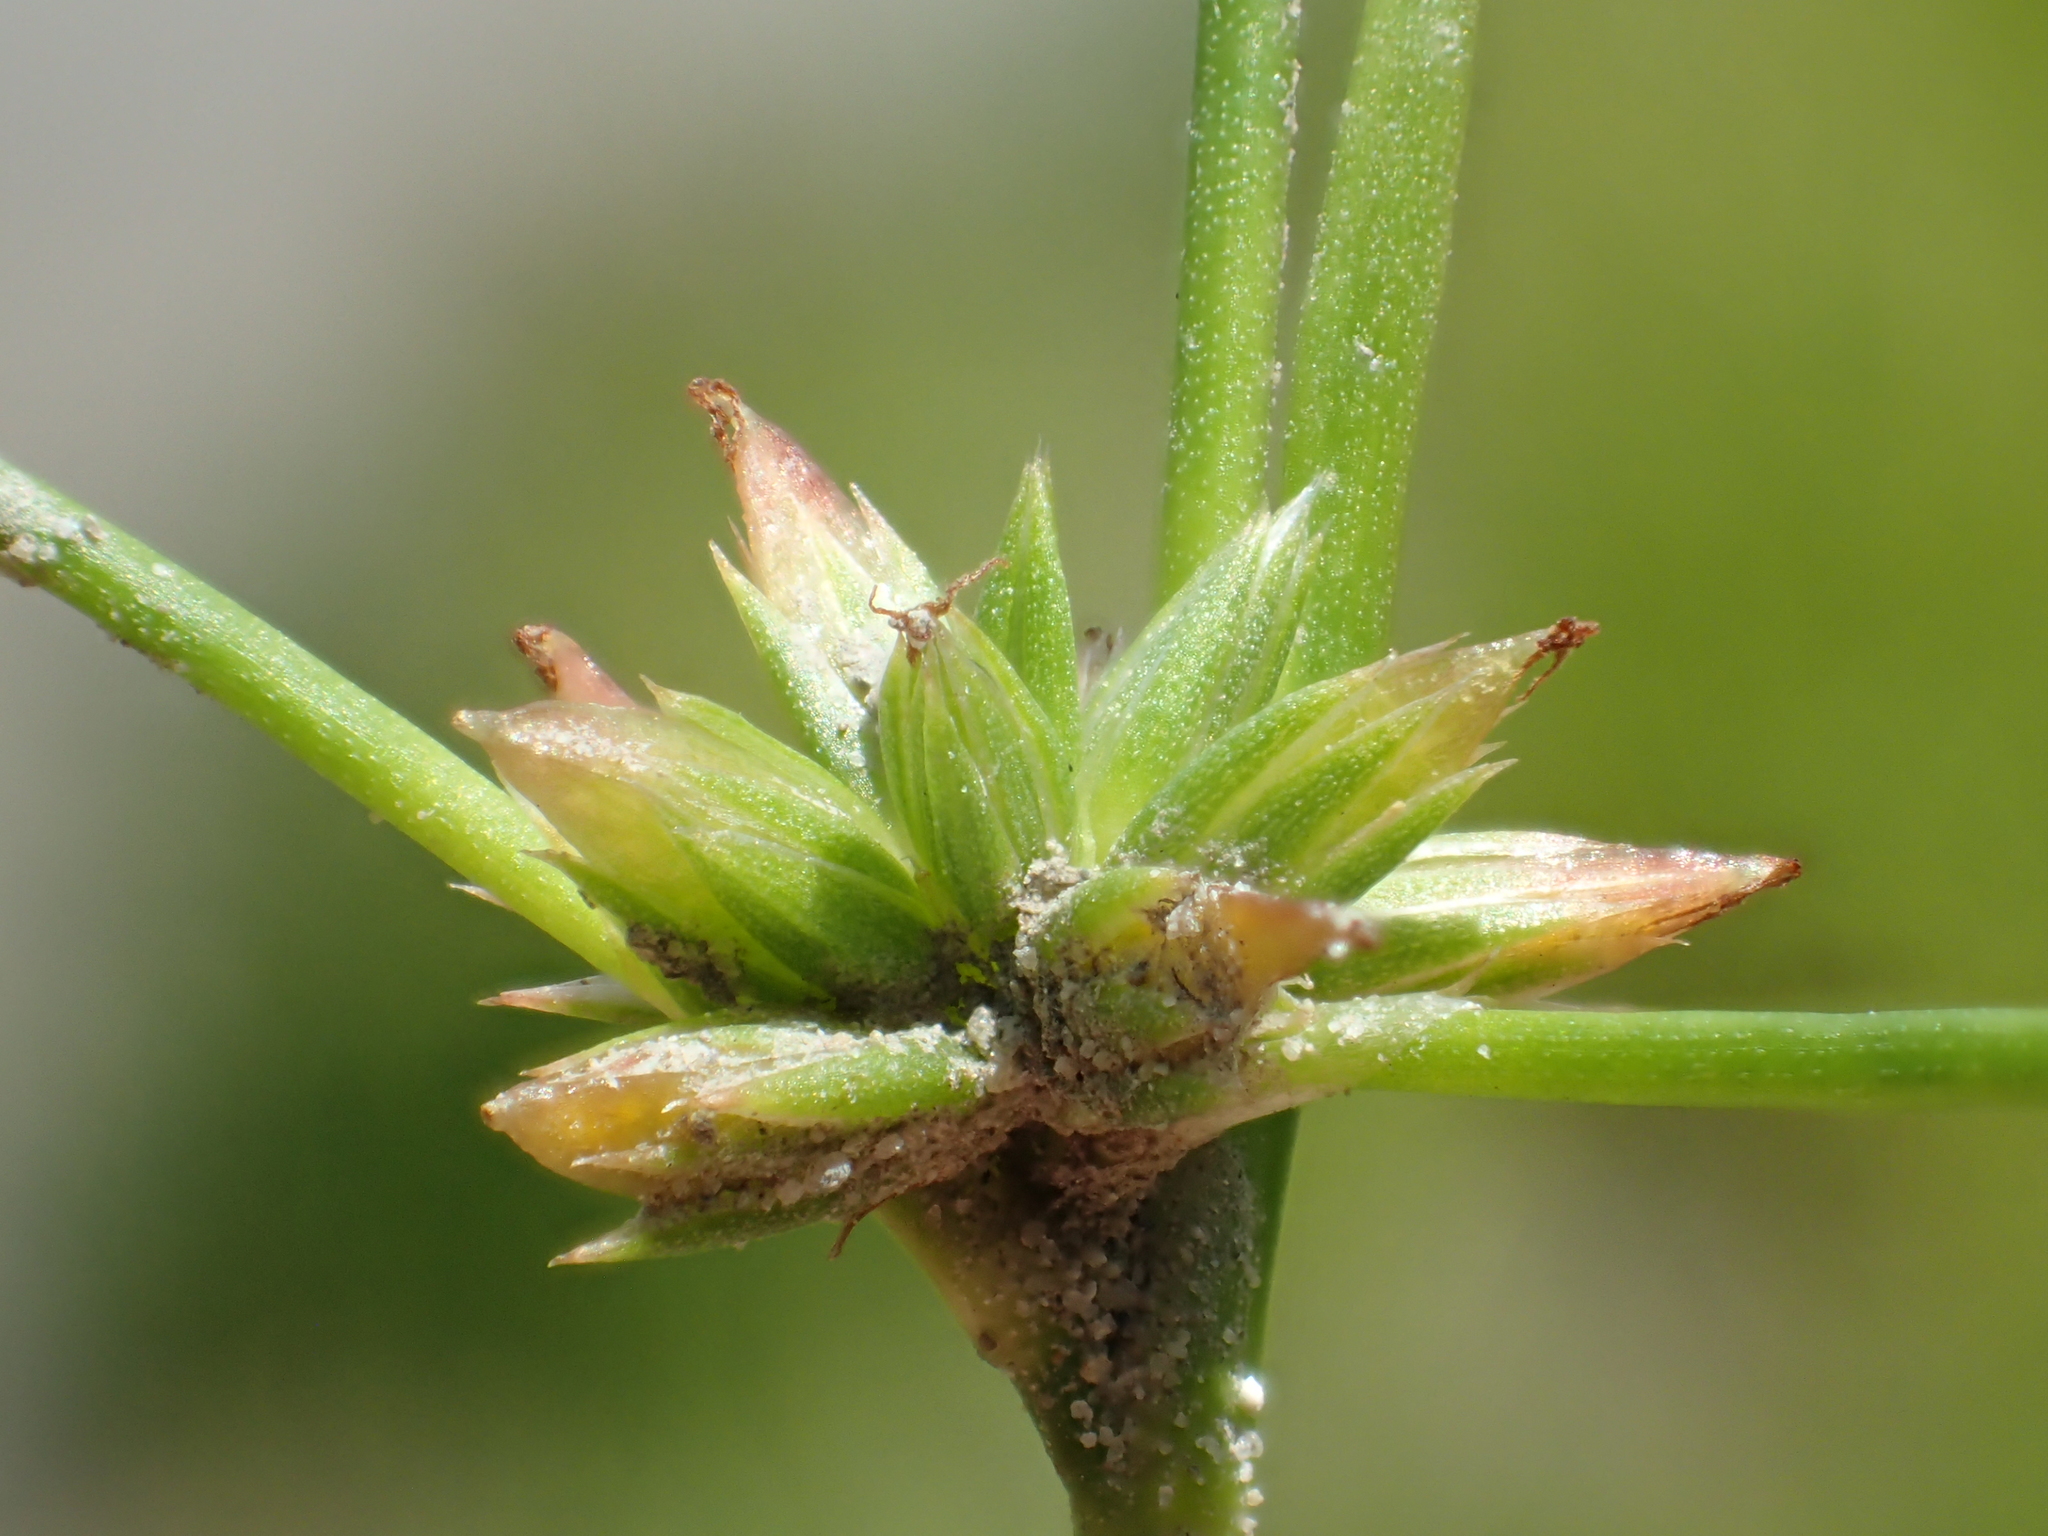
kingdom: Plantae
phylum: Tracheophyta
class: Liliopsida
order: Poales
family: Juncaceae
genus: Juncus
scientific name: Juncus prismatocarpus
